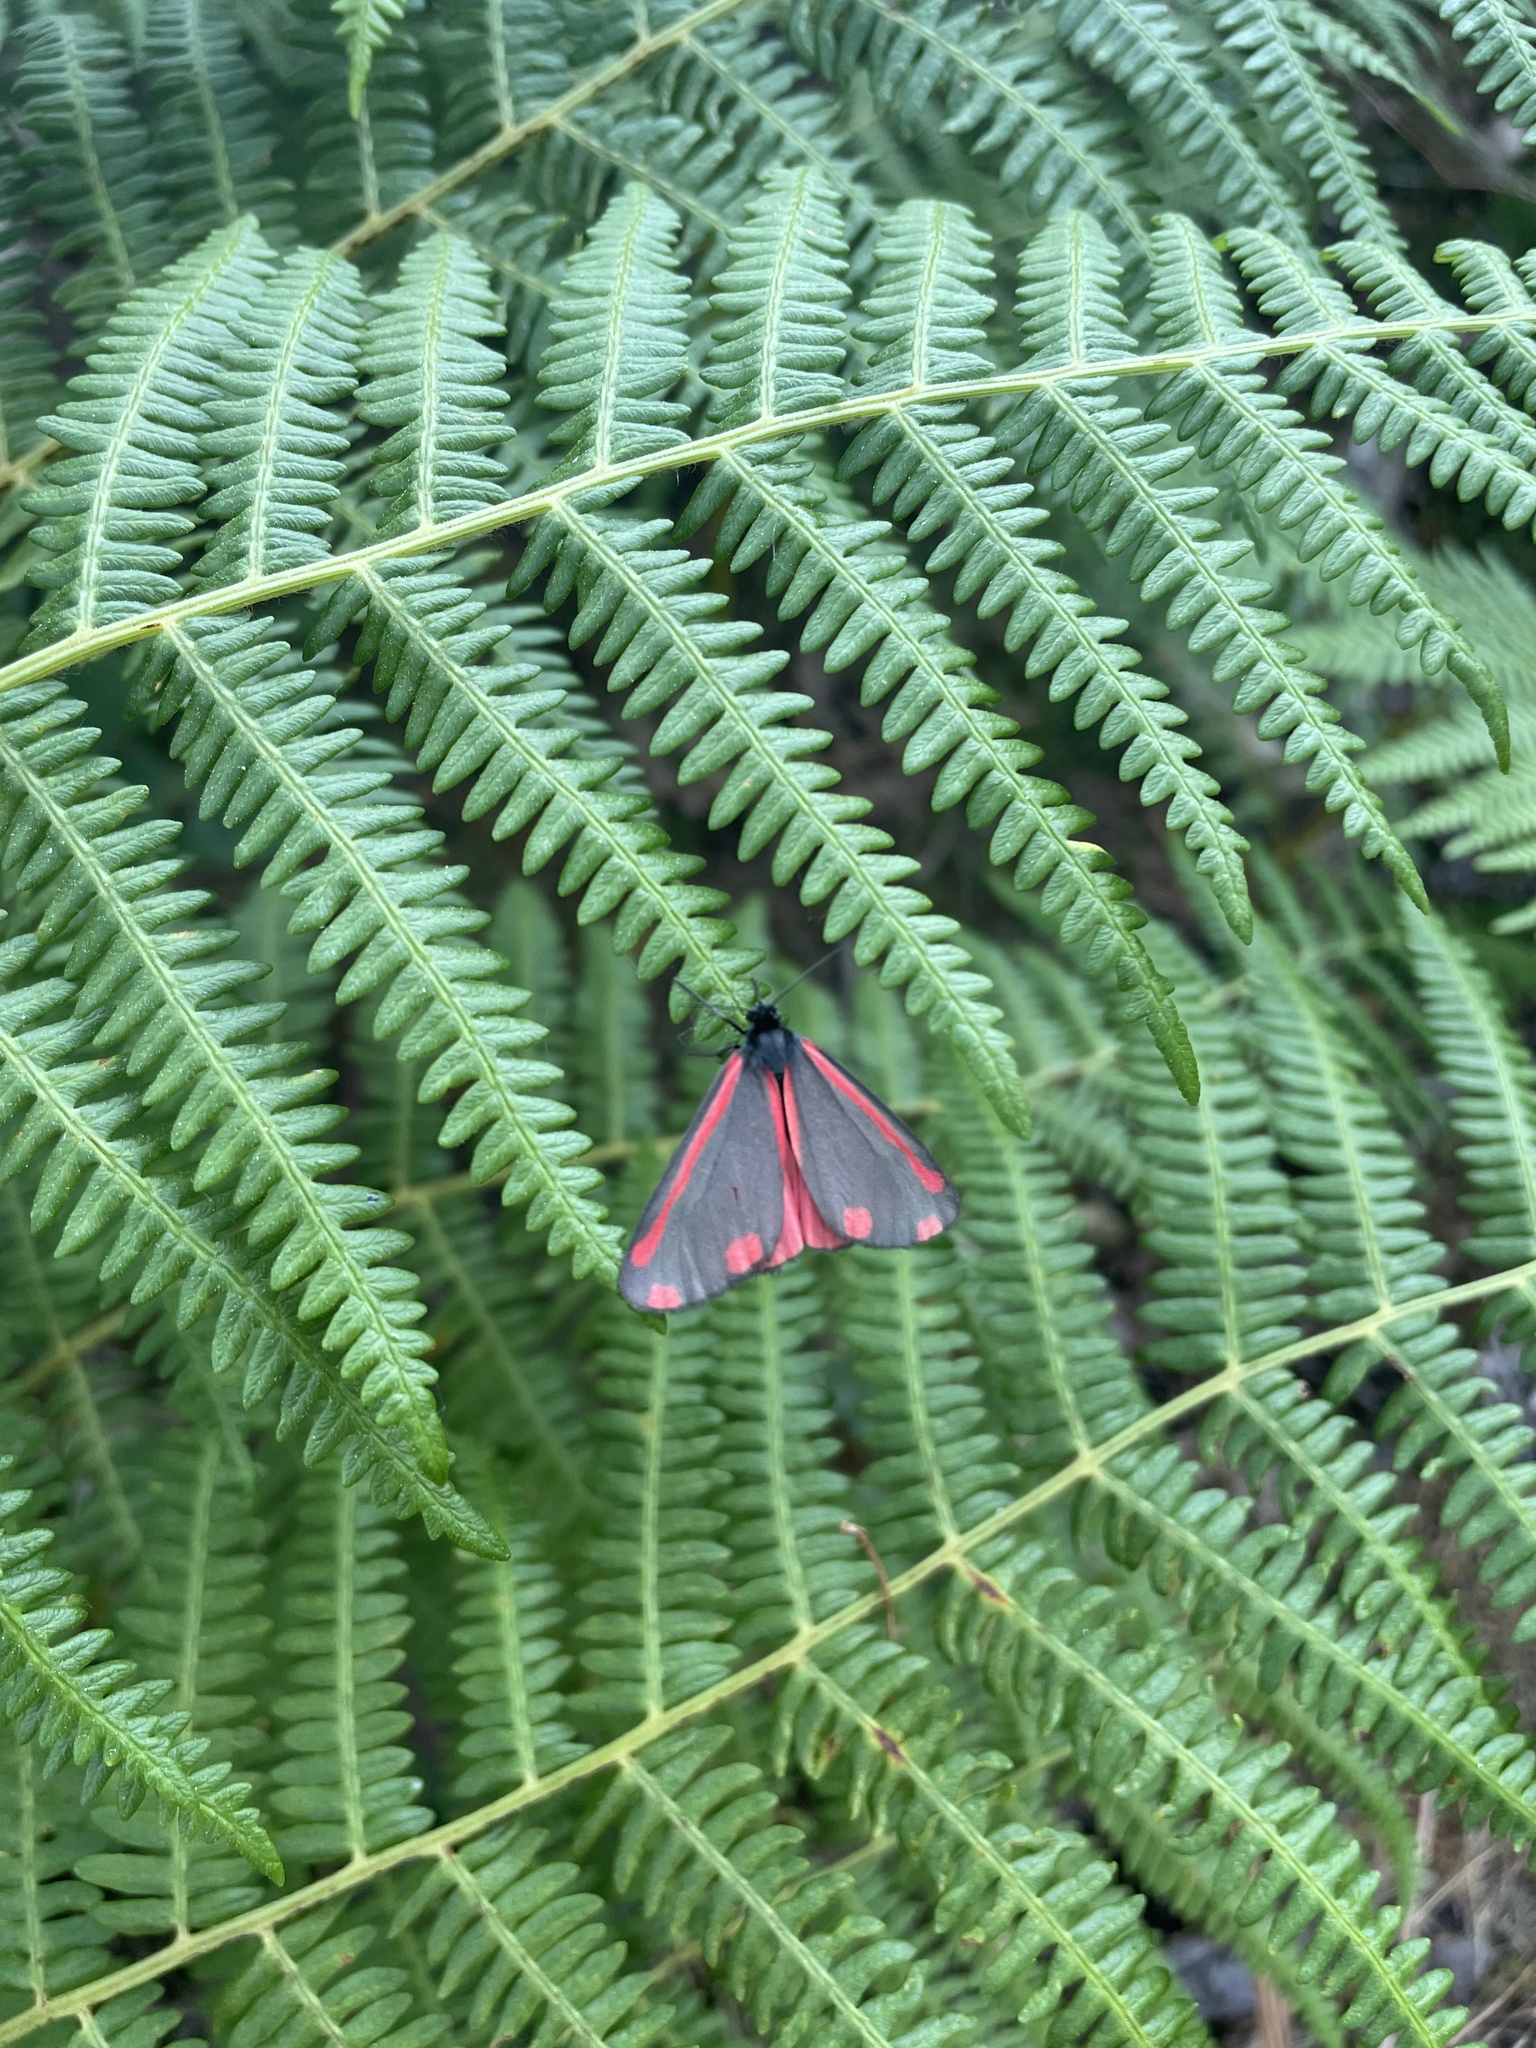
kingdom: Animalia
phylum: Arthropoda
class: Insecta
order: Lepidoptera
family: Erebidae
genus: Tyria
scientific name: Tyria jacobaeae
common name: Cinnabar
